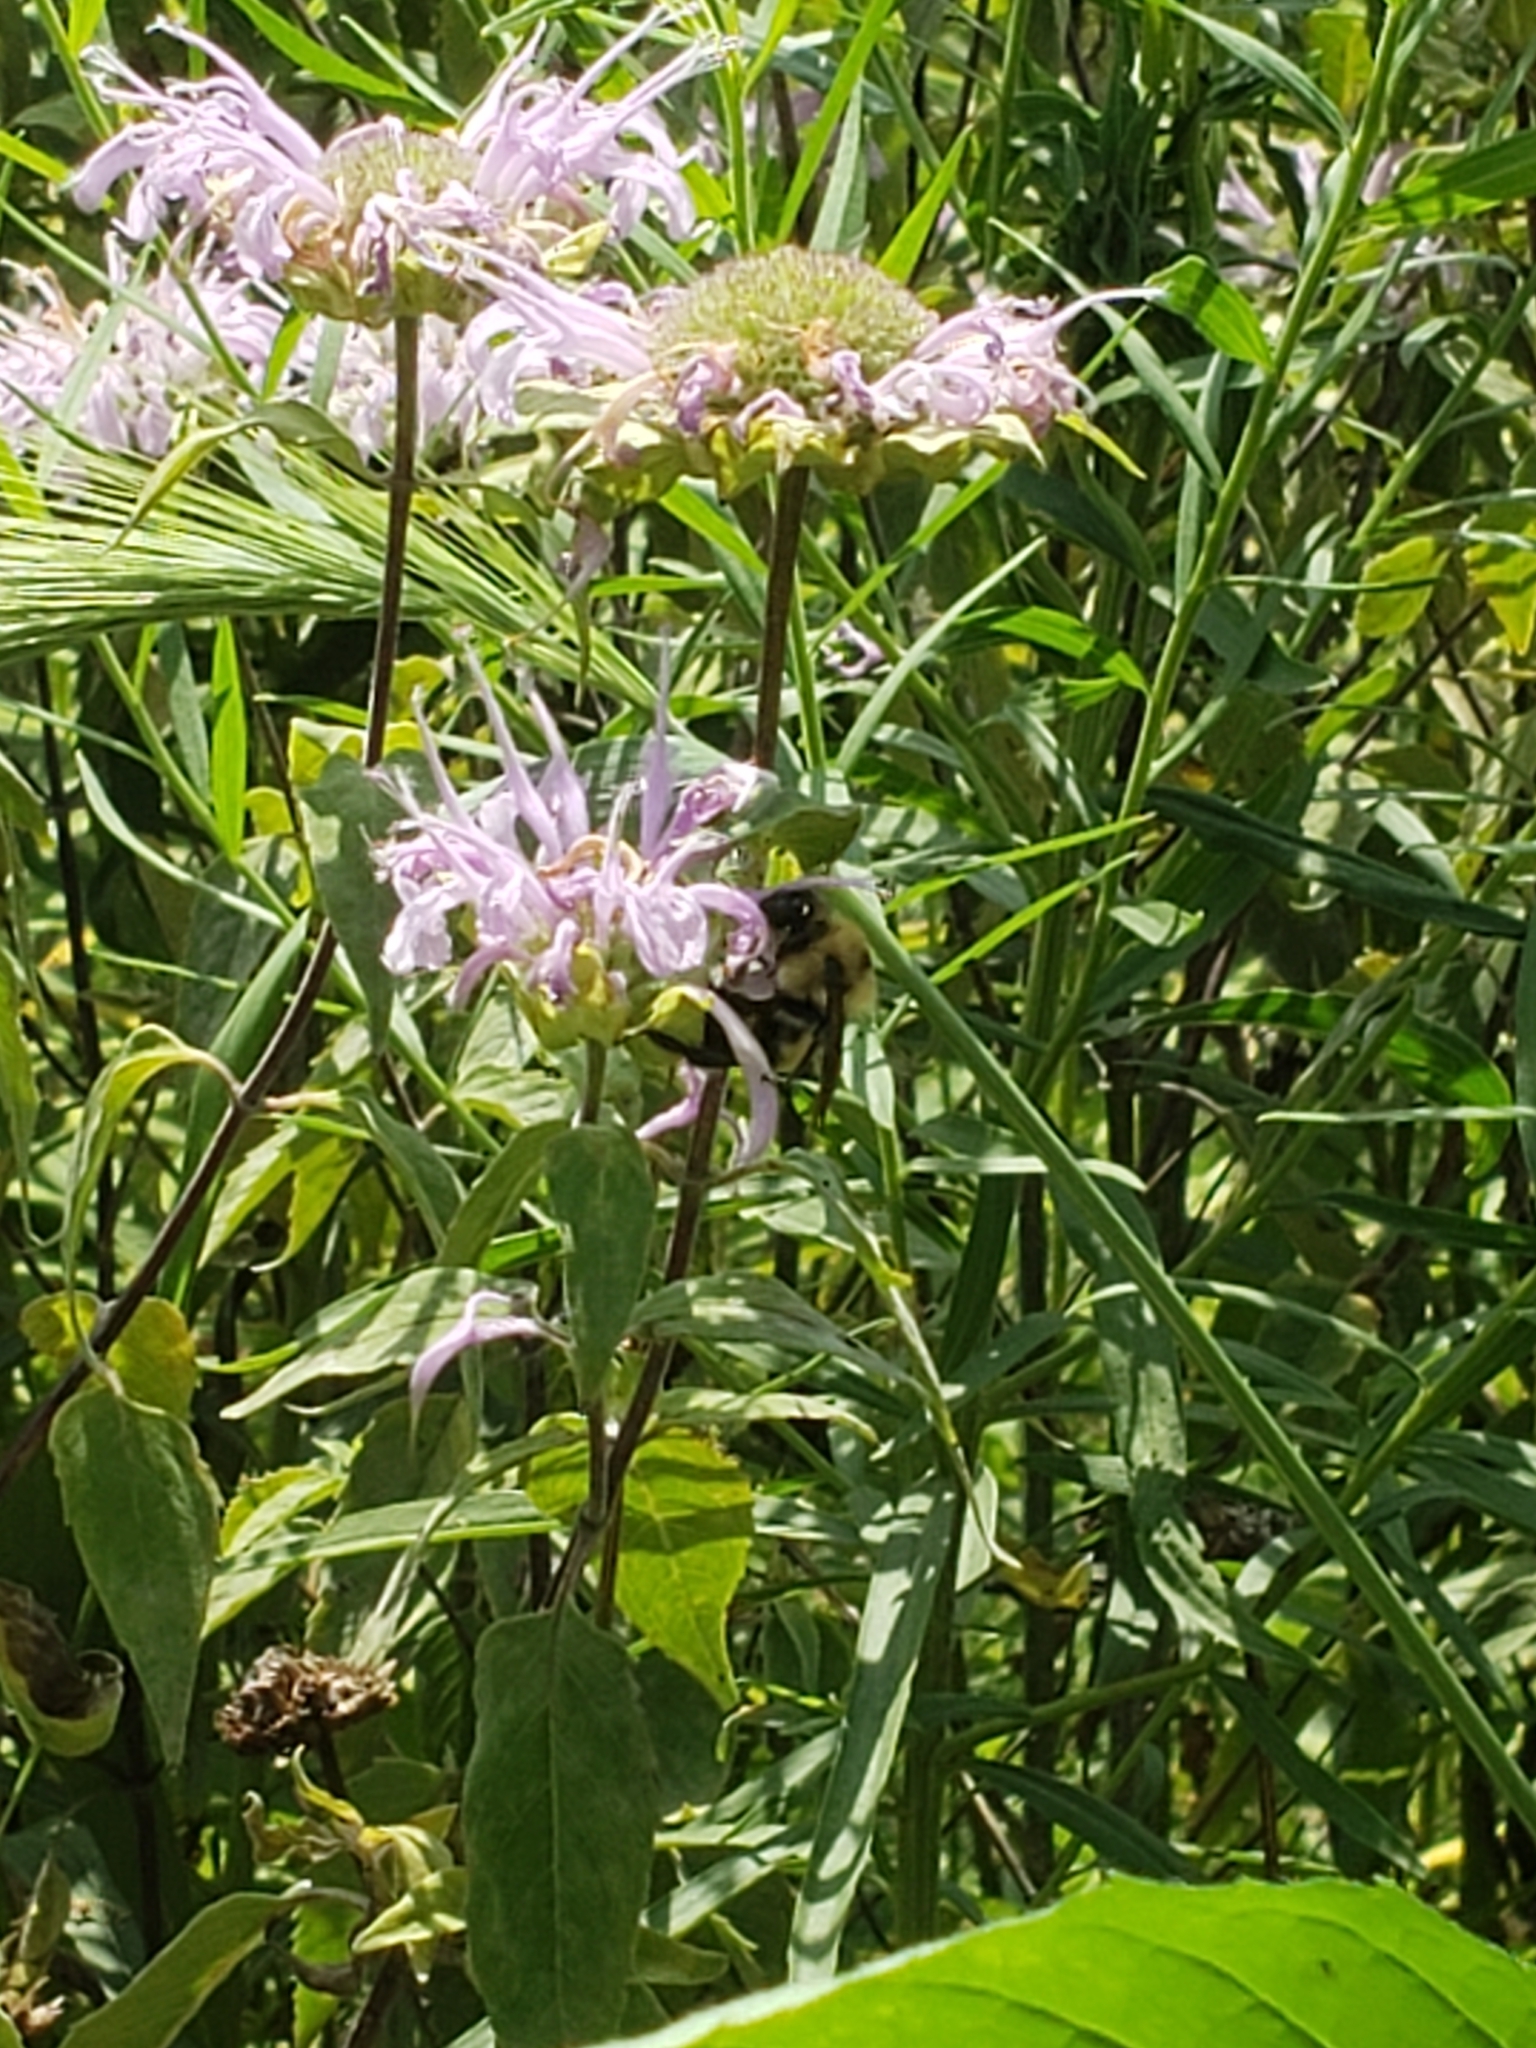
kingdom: Animalia
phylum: Arthropoda
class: Insecta
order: Hymenoptera
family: Apidae
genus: Bombus
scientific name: Bombus griseocollis
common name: Brown-belted bumble bee
